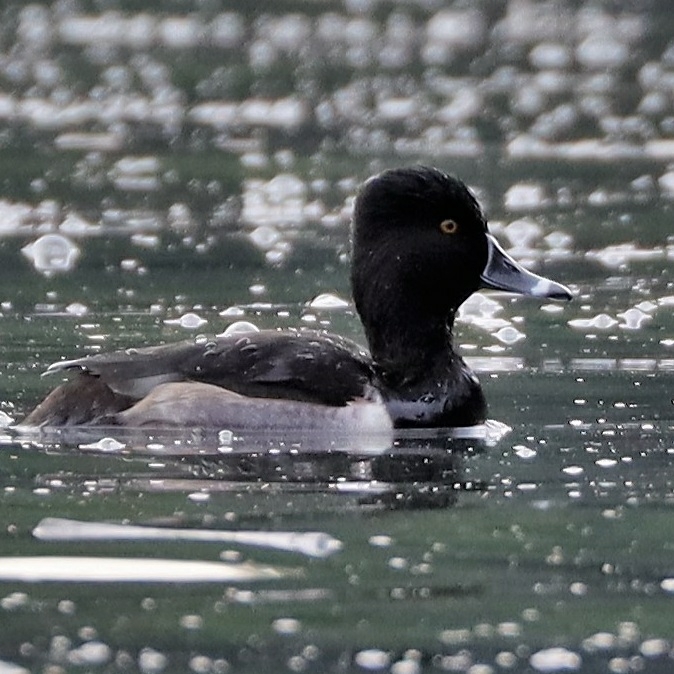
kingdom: Animalia
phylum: Chordata
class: Aves
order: Anseriformes
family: Anatidae
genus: Aythya
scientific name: Aythya collaris
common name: Ring-necked duck
